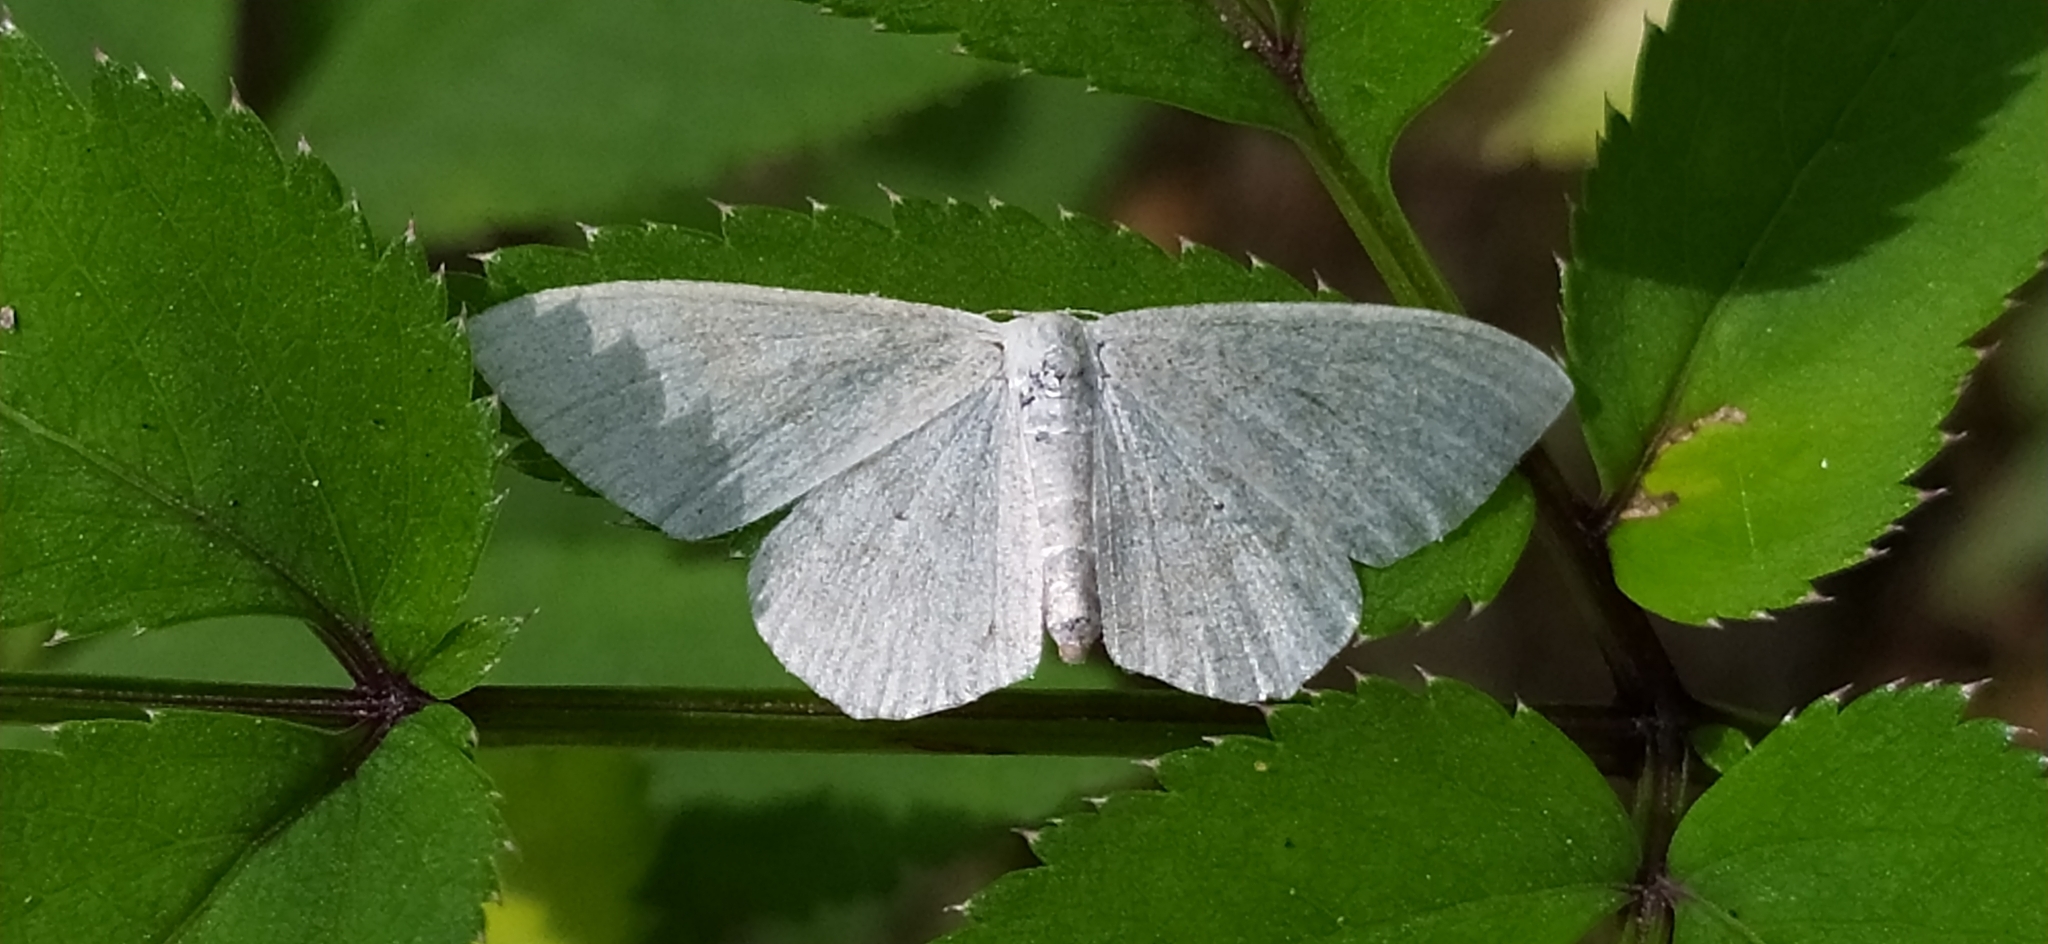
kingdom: Animalia
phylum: Arthropoda
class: Insecta
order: Lepidoptera
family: Geometridae
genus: Scopula
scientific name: Scopula floslactata
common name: Cream wave
